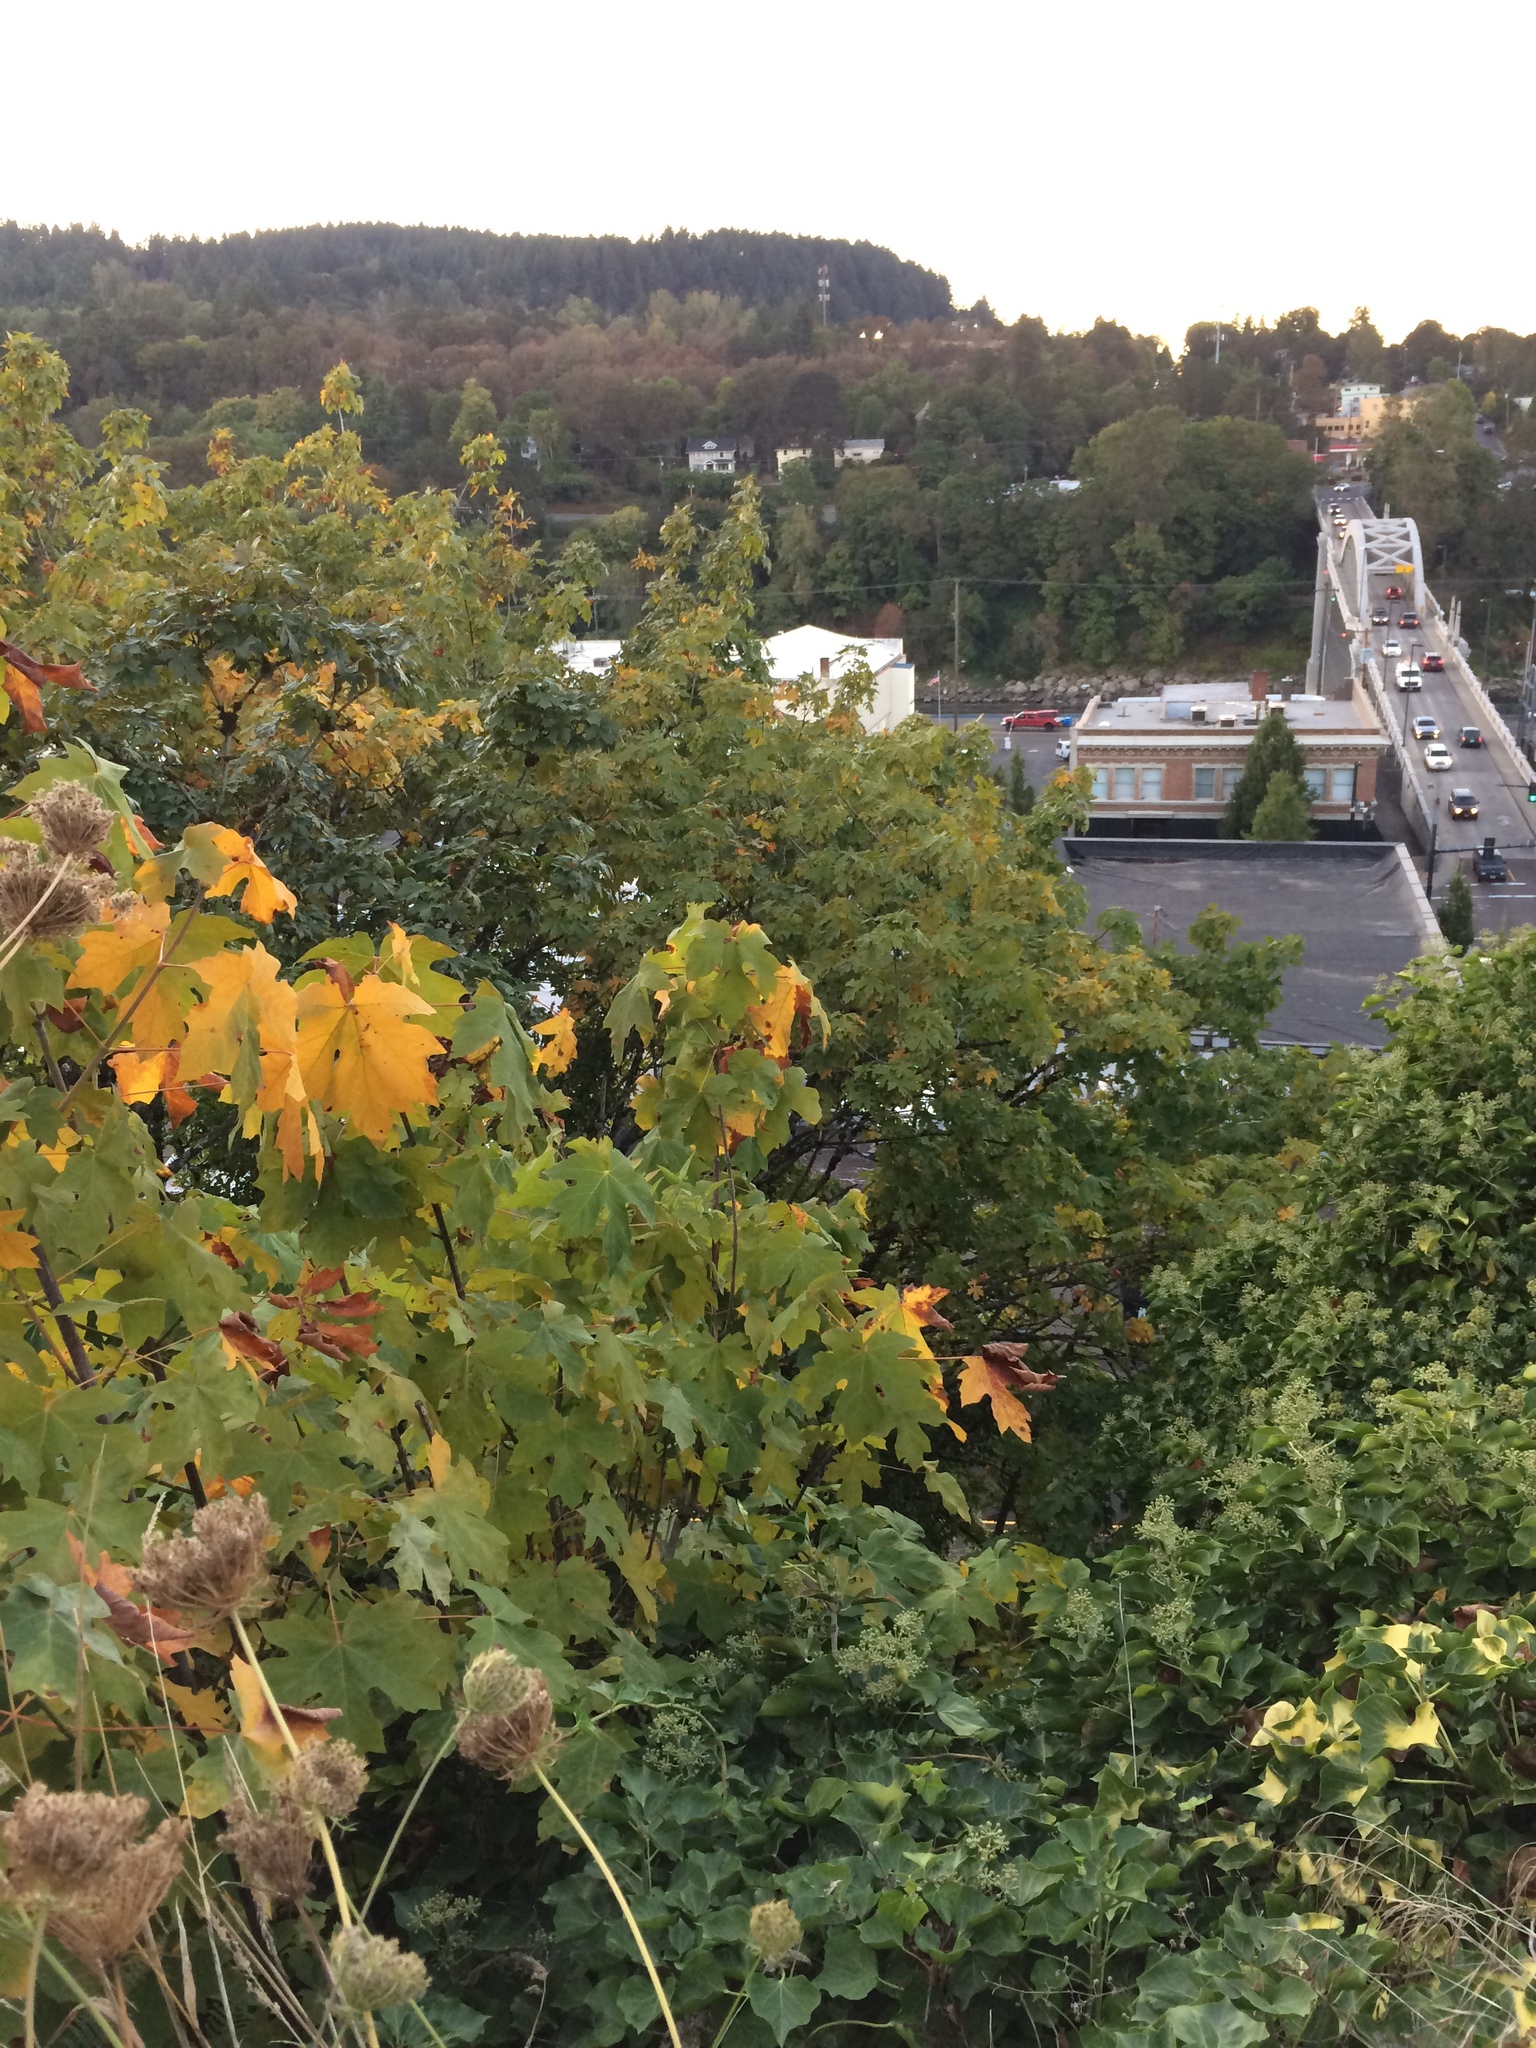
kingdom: Plantae
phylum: Tracheophyta
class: Magnoliopsida
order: Sapindales
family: Sapindaceae
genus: Acer
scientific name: Acer macrophyllum
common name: Oregon maple
